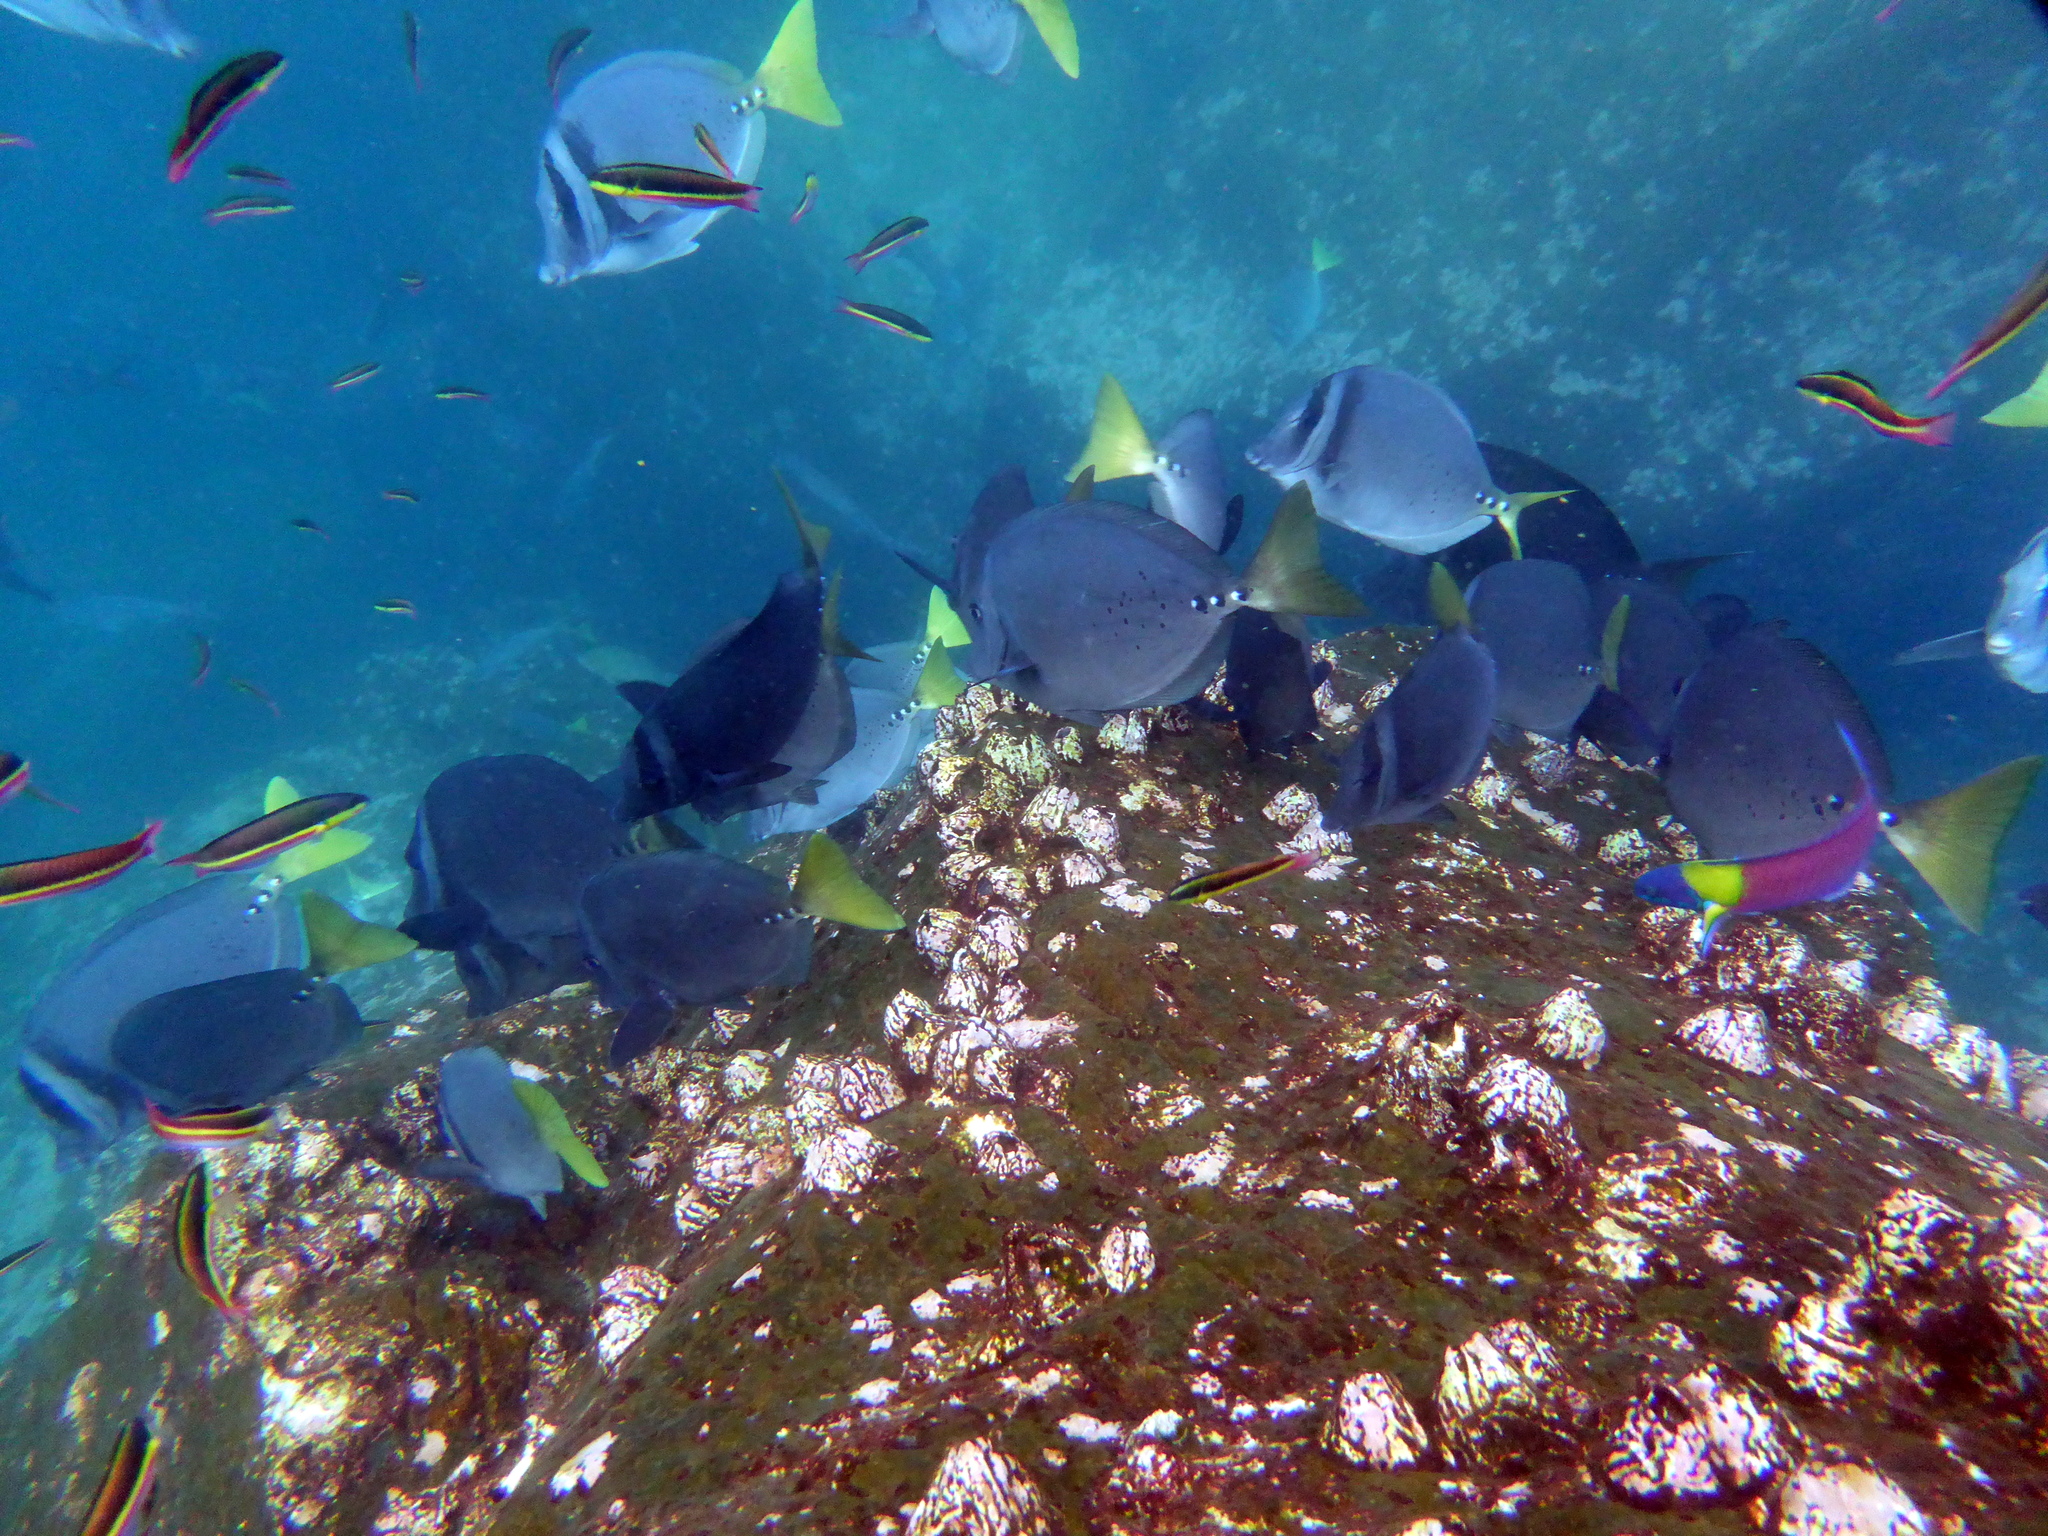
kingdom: Animalia
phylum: Chordata
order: Perciformes
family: Acanthuridae
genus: Prionurus
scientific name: Prionurus laticlavius
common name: Razor surgeonfish
